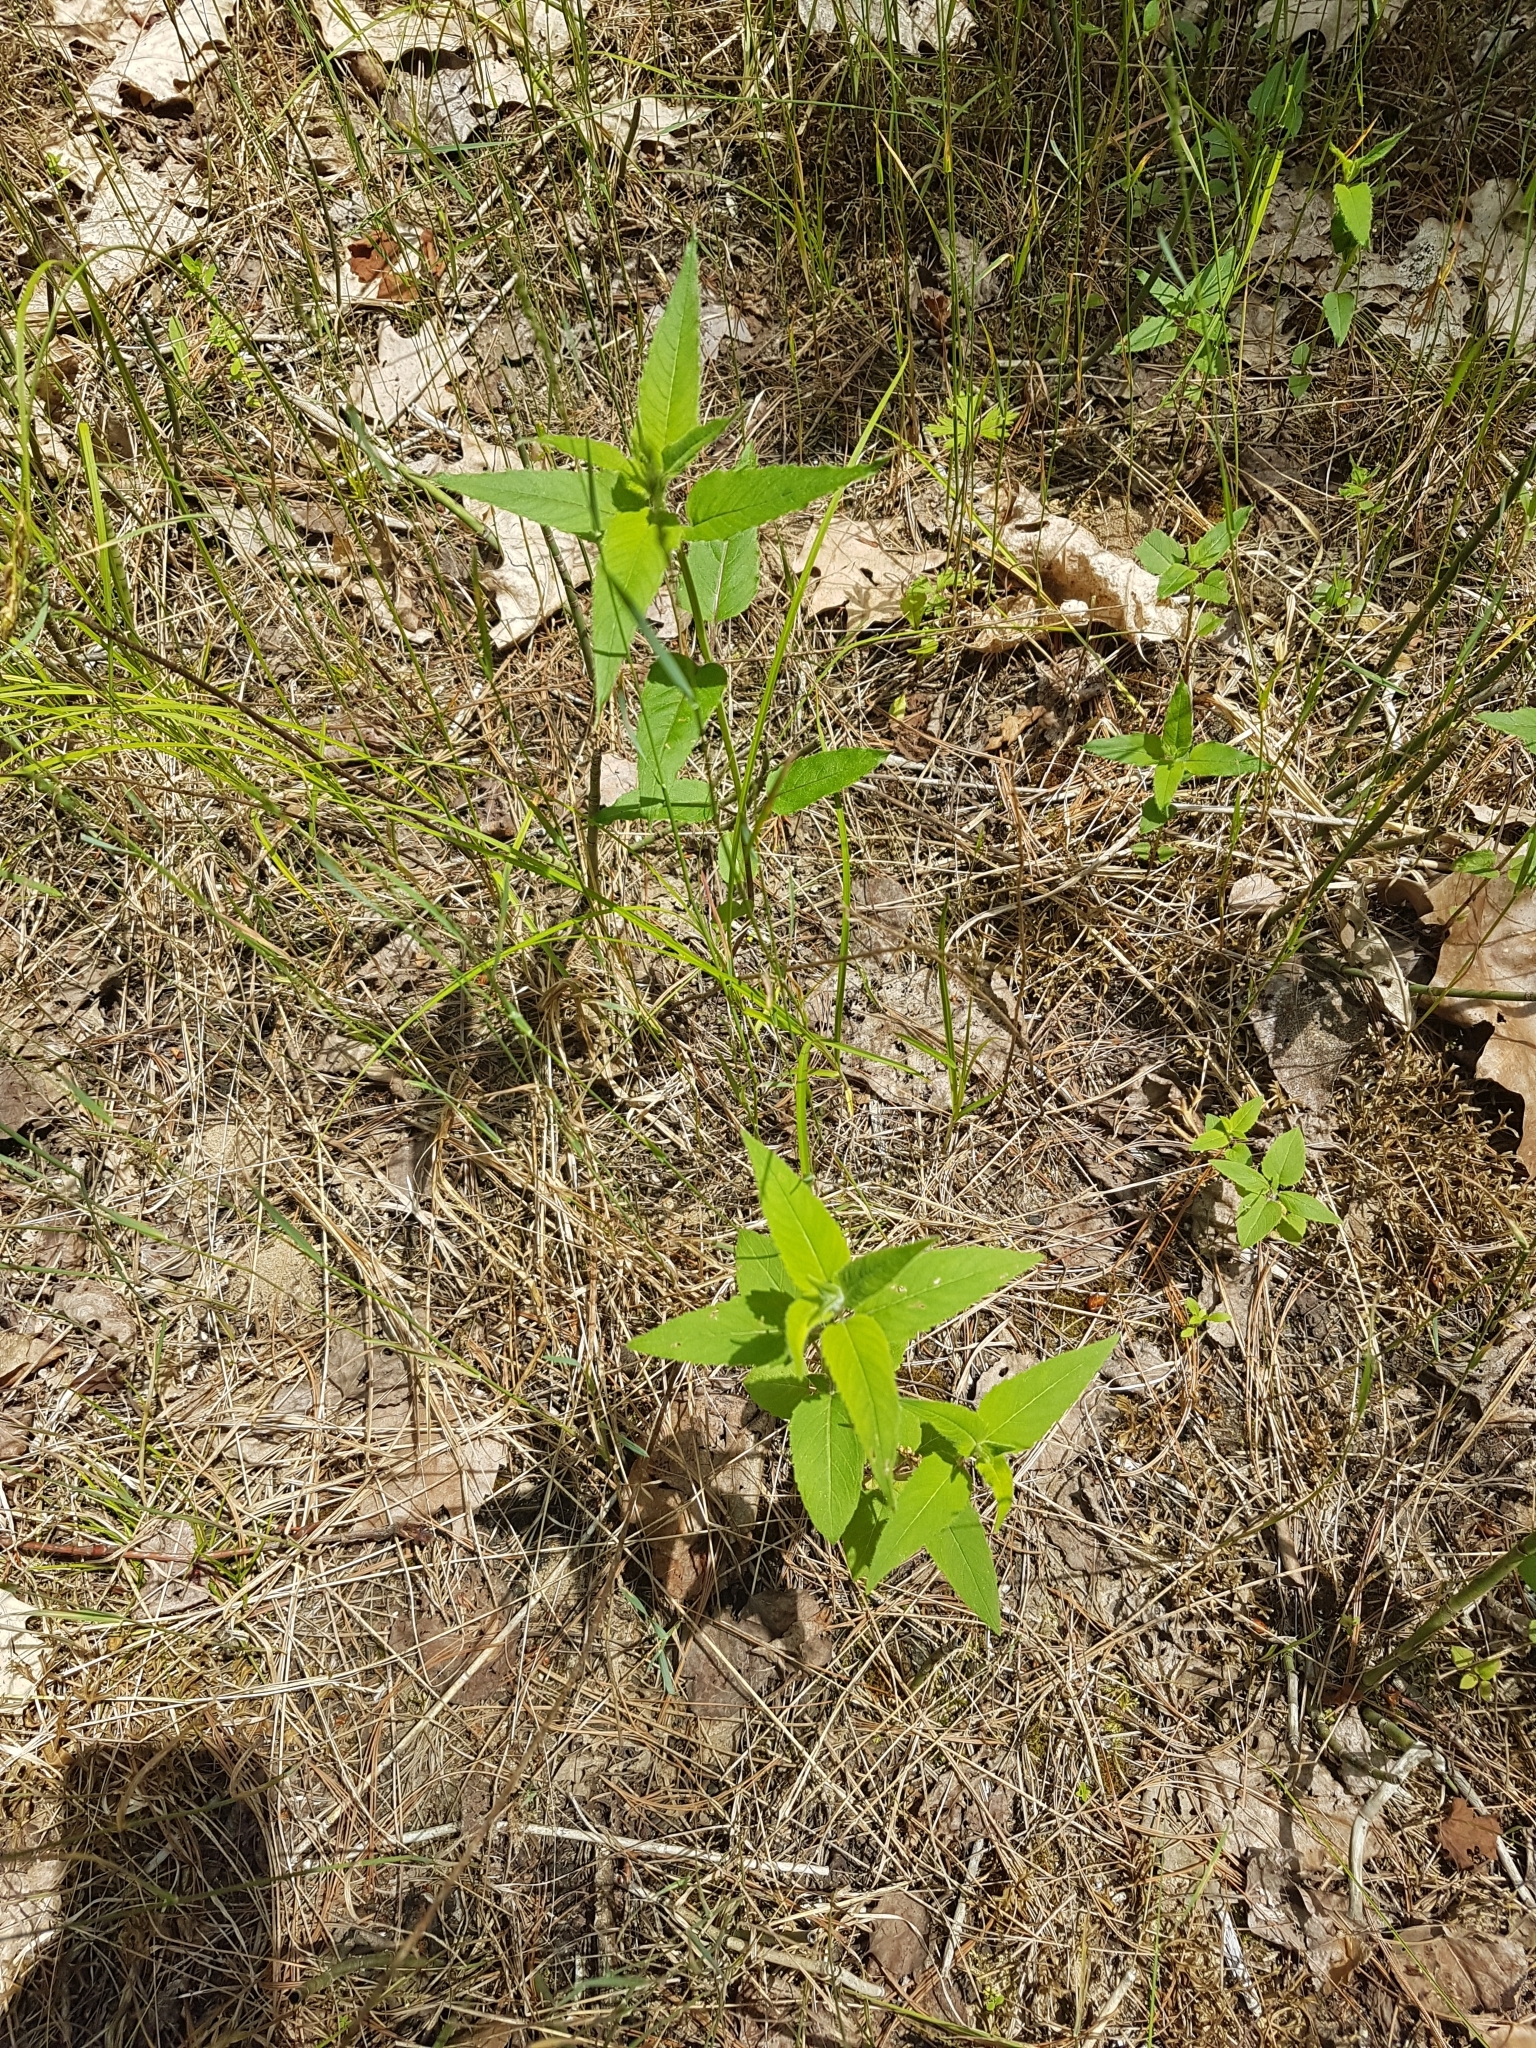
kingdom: Plantae
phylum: Tracheophyta
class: Magnoliopsida
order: Lamiales
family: Lamiaceae
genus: Monarda
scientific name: Monarda fistulosa
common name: Purple beebalm
